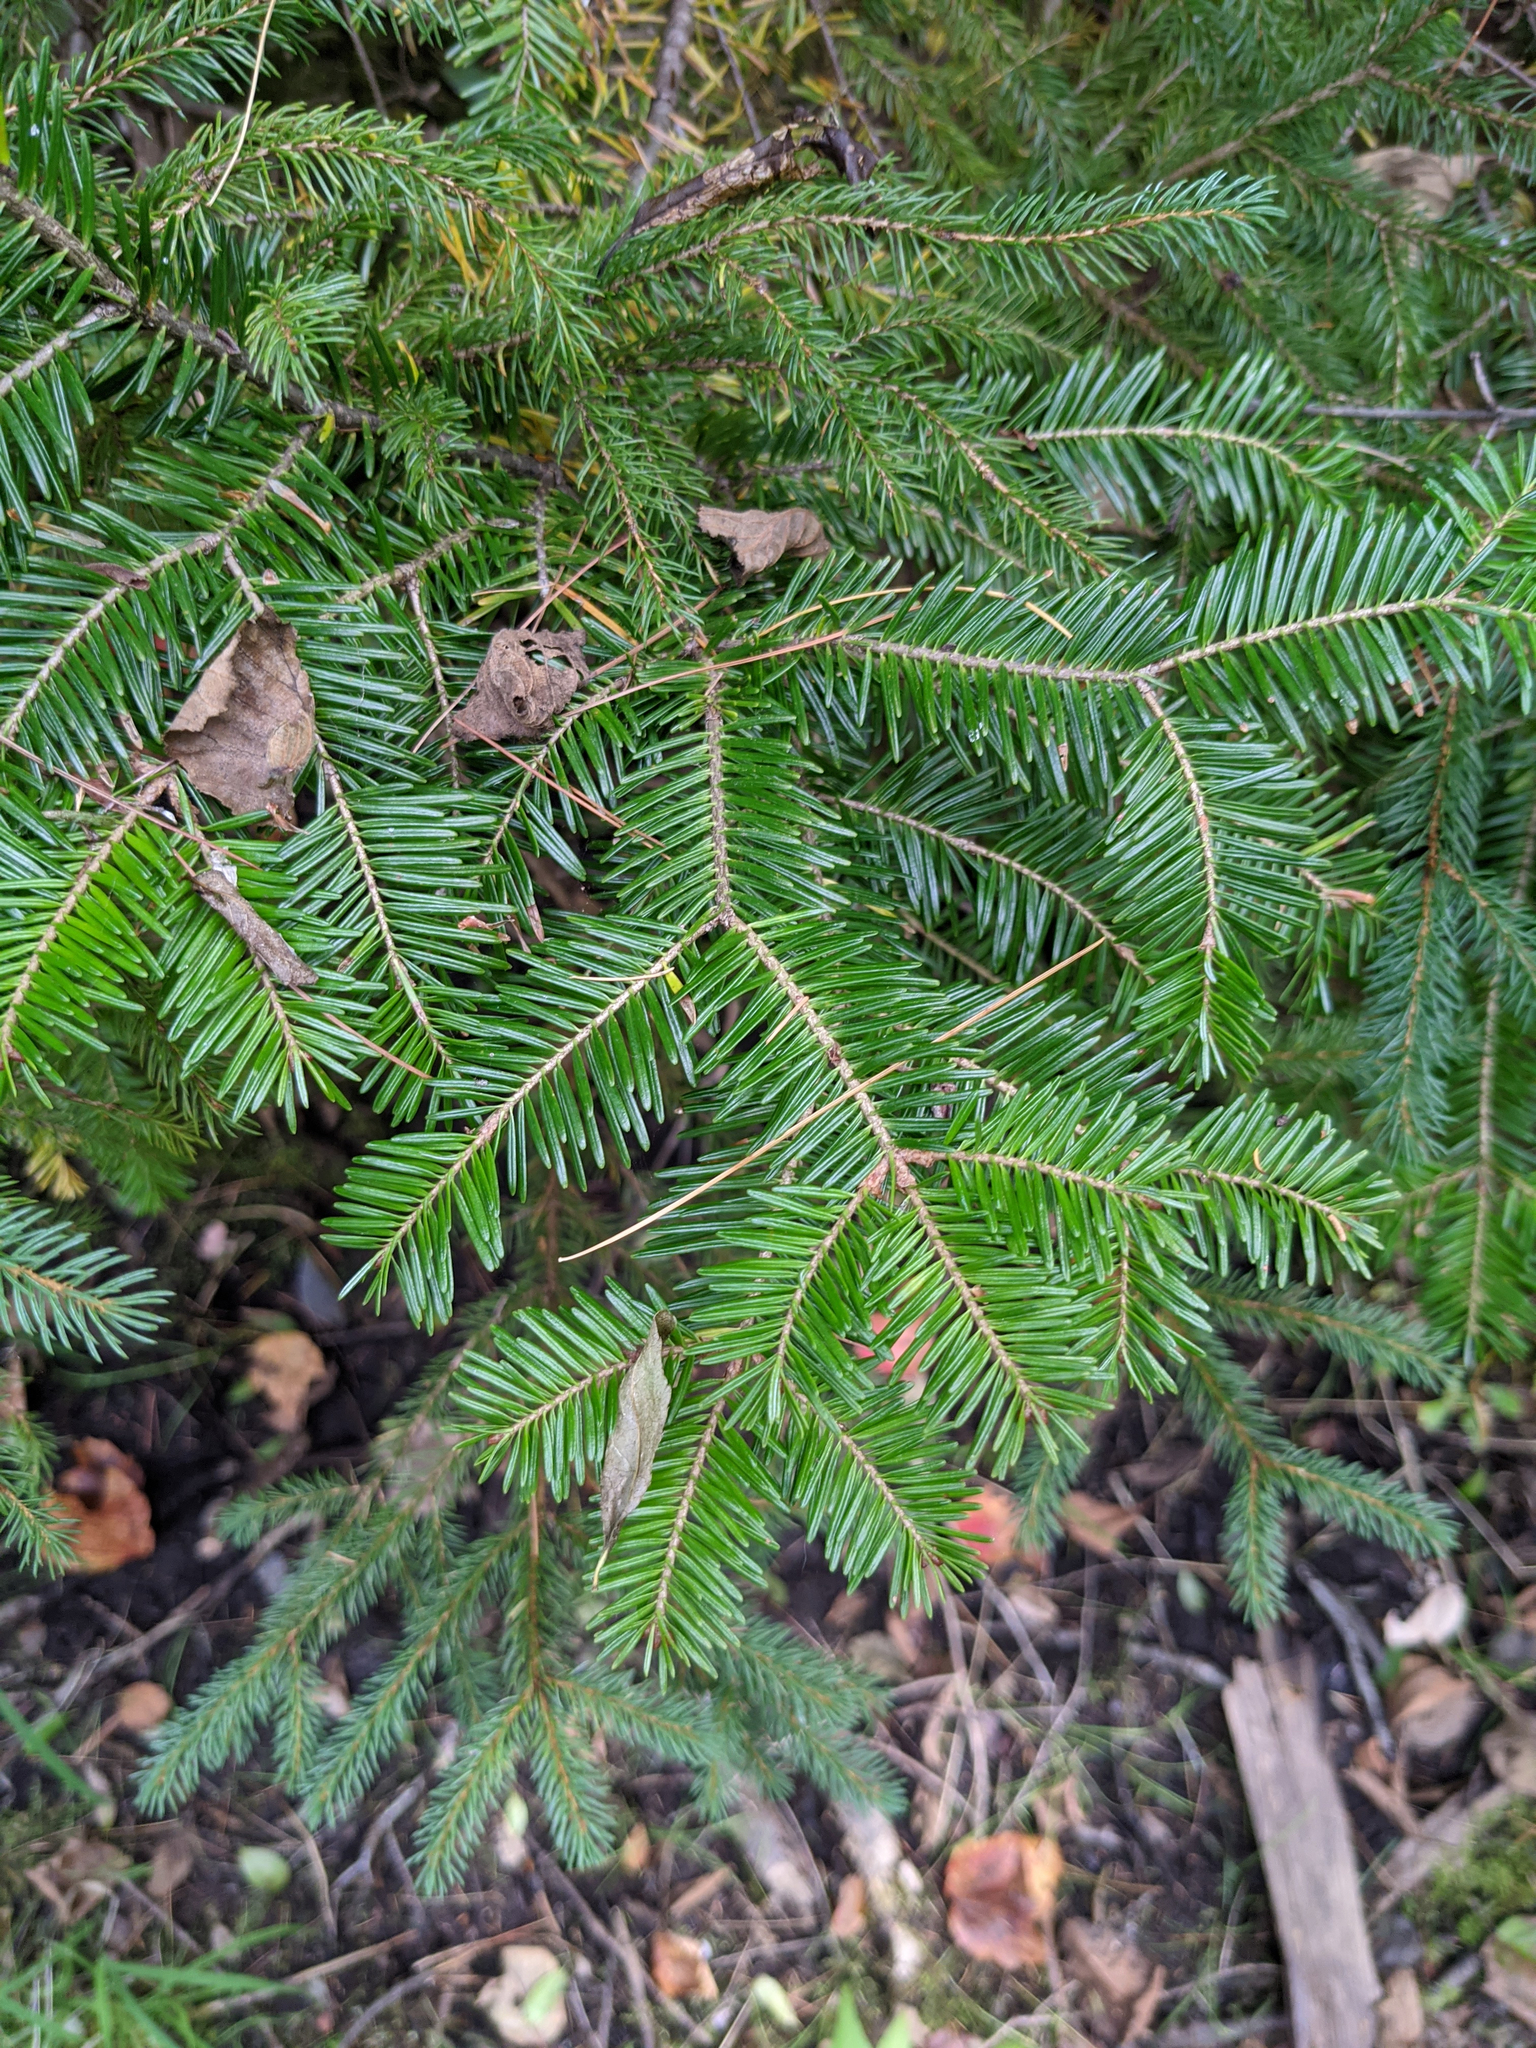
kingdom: Plantae
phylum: Tracheophyta
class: Pinopsida
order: Pinales
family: Pinaceae
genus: Abies
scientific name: Abies balsamea
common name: Balsam fir
